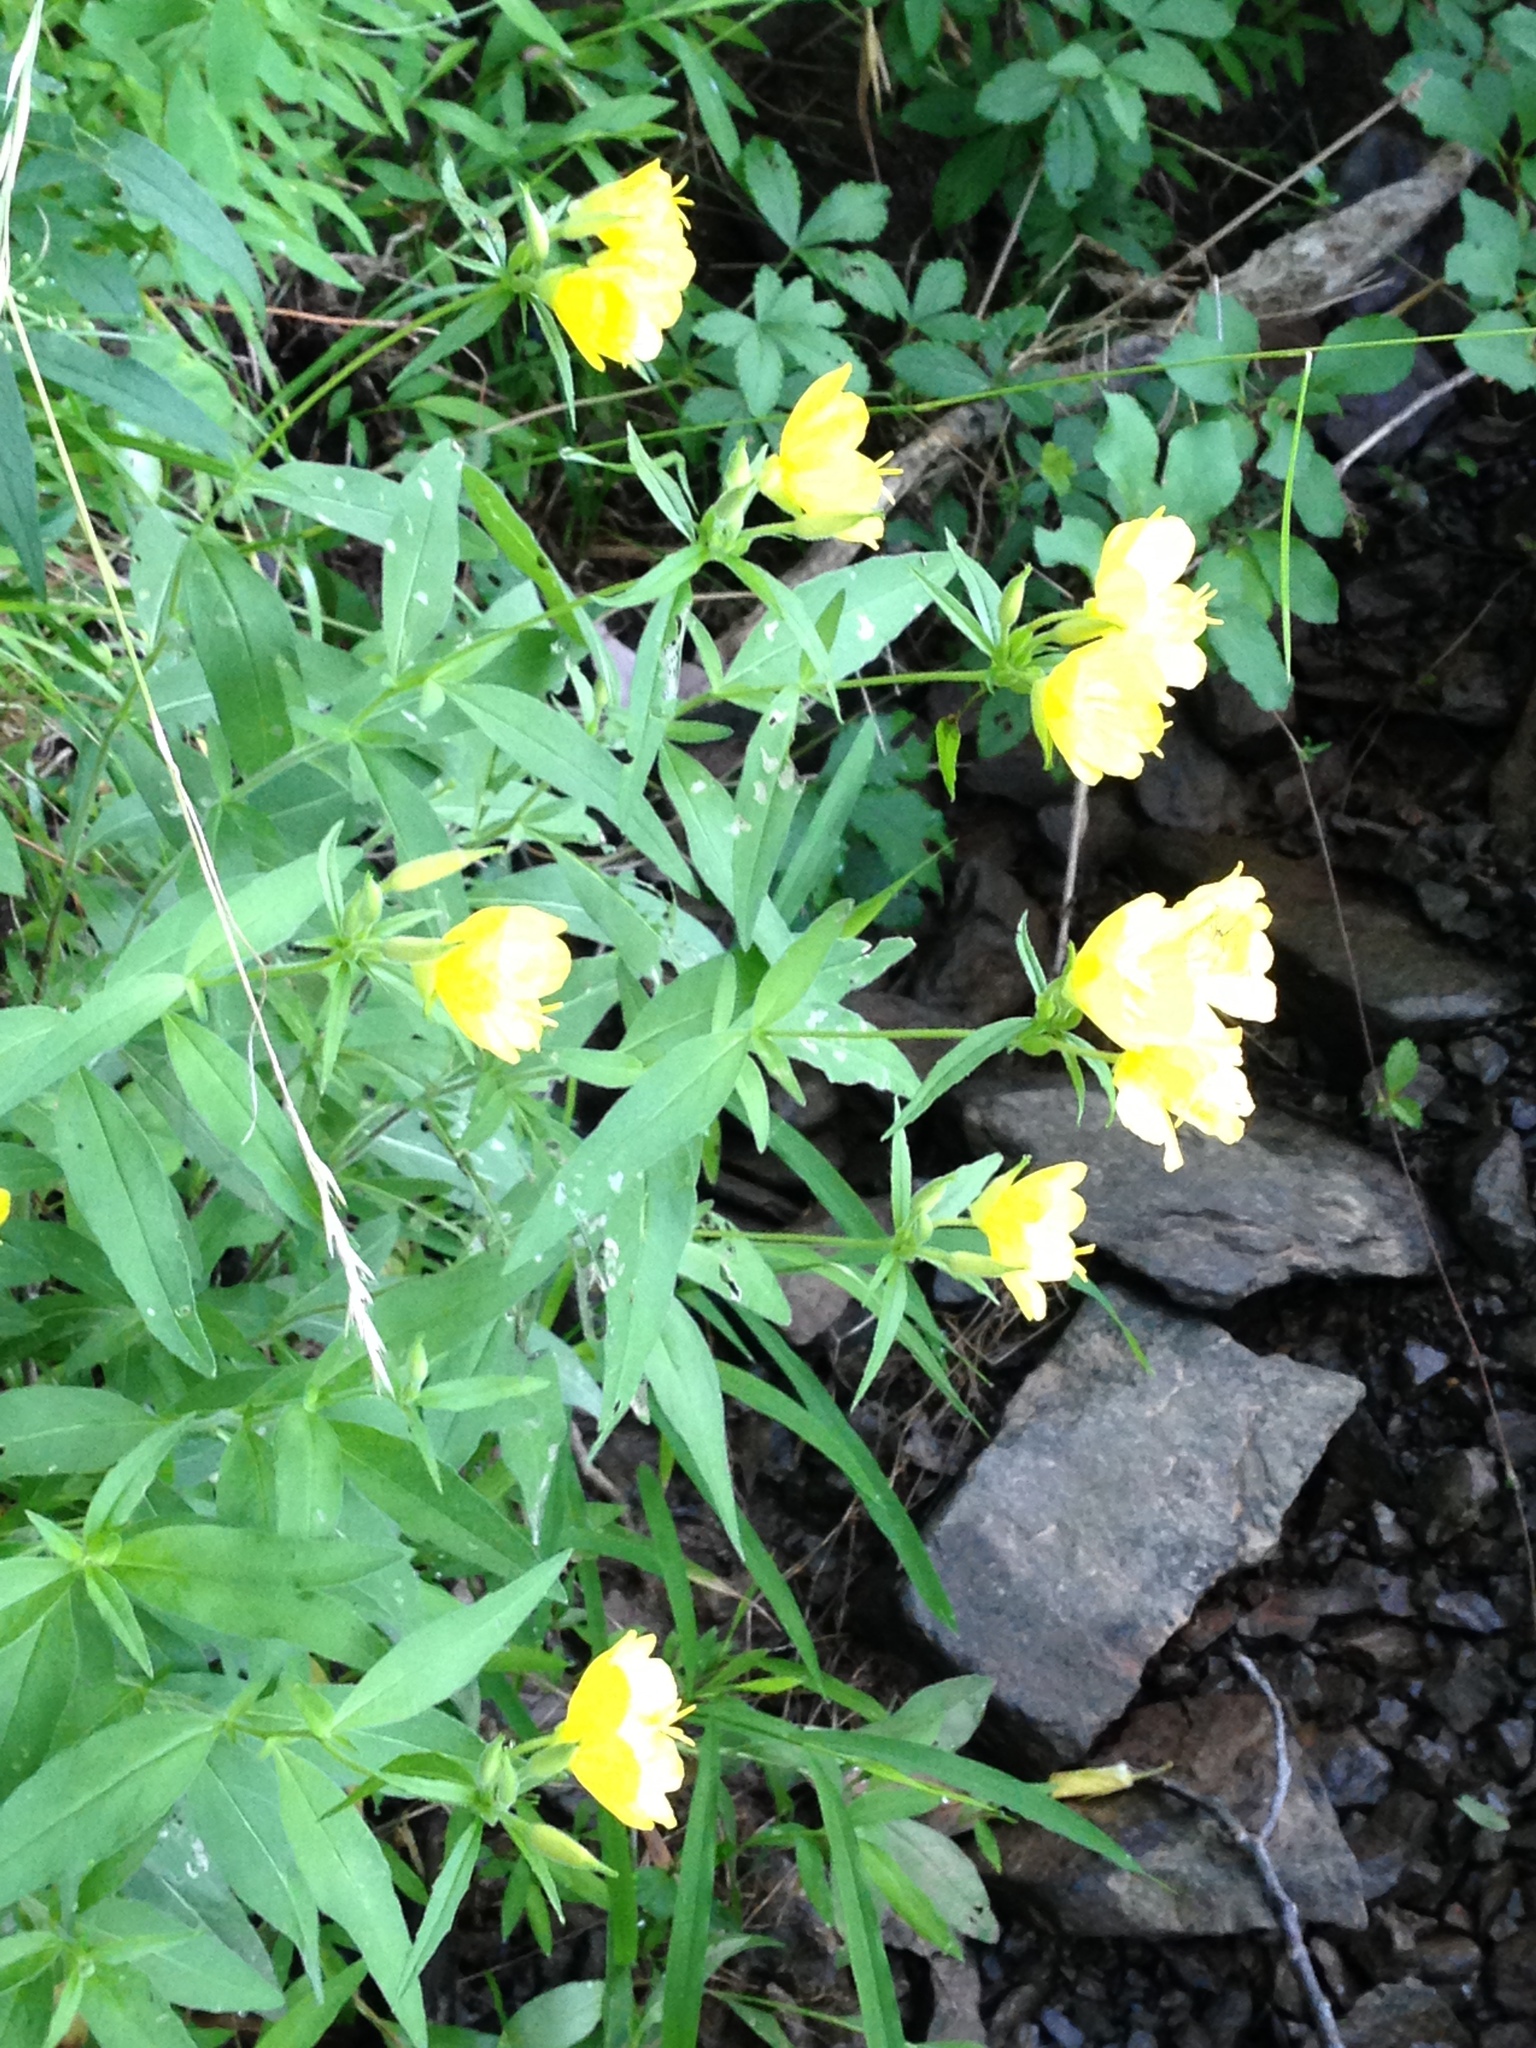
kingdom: Plantae
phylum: Tracheophyta
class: Magnoliopsida
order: Myrtales
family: Onagraceae
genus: Oenothera
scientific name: Oenothera tetragona
